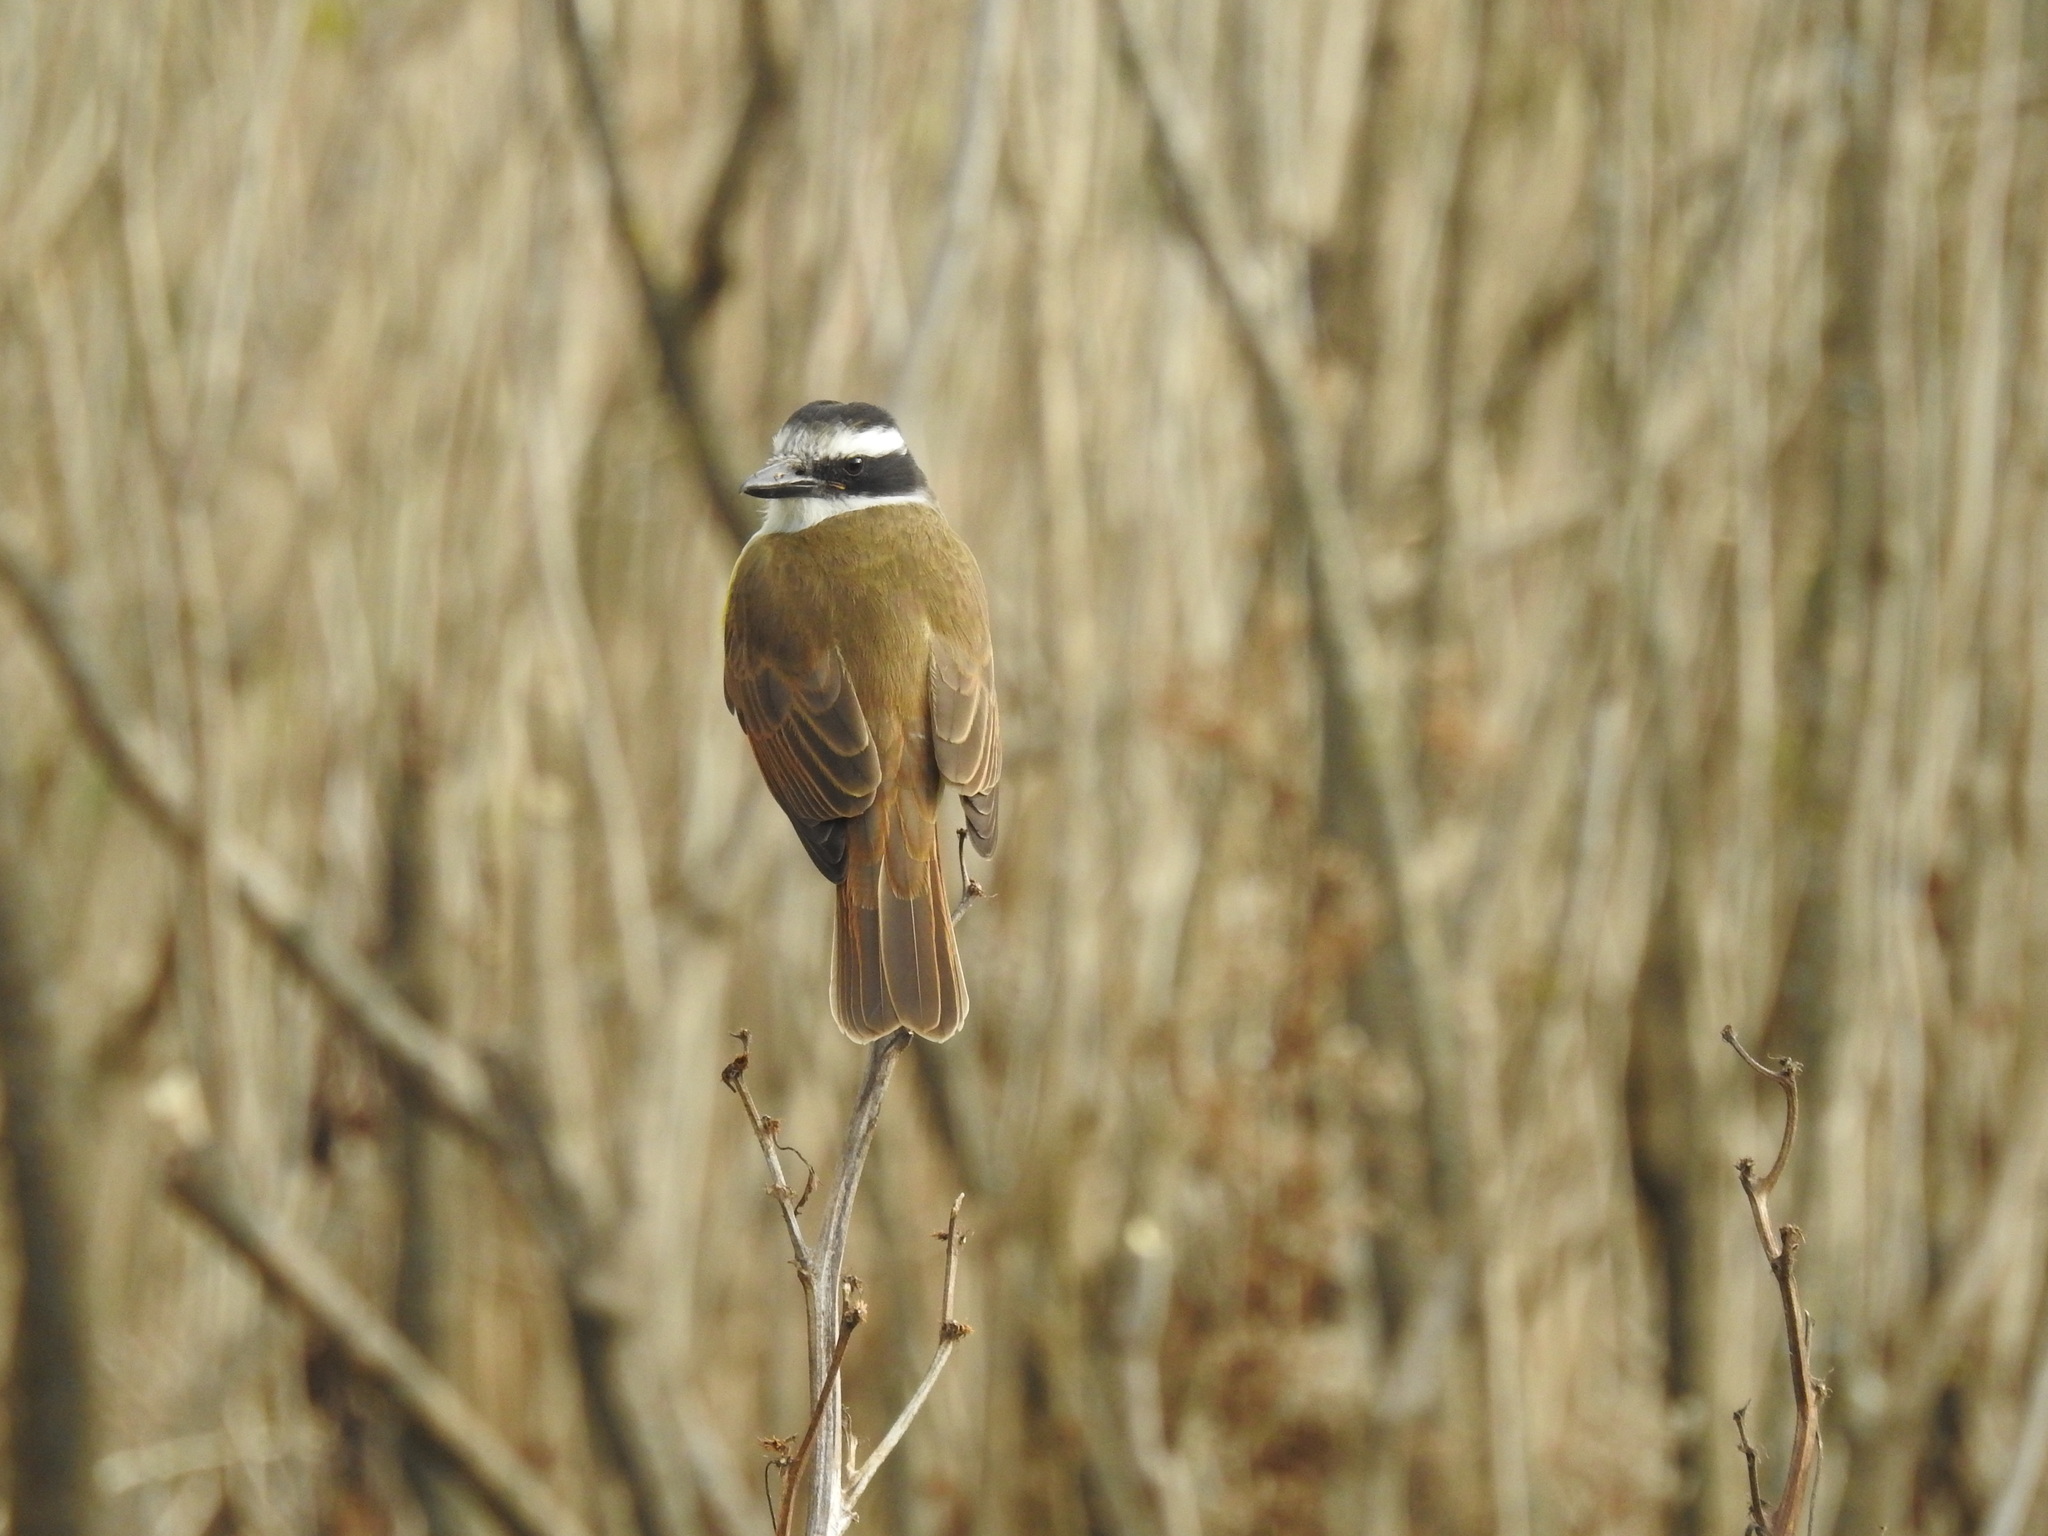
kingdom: Animalia
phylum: Chordata
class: Aves
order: Passeriformes
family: Tyrannidae
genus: Pitangus
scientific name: Pitangus sulphuratus
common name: Great kiskadee
